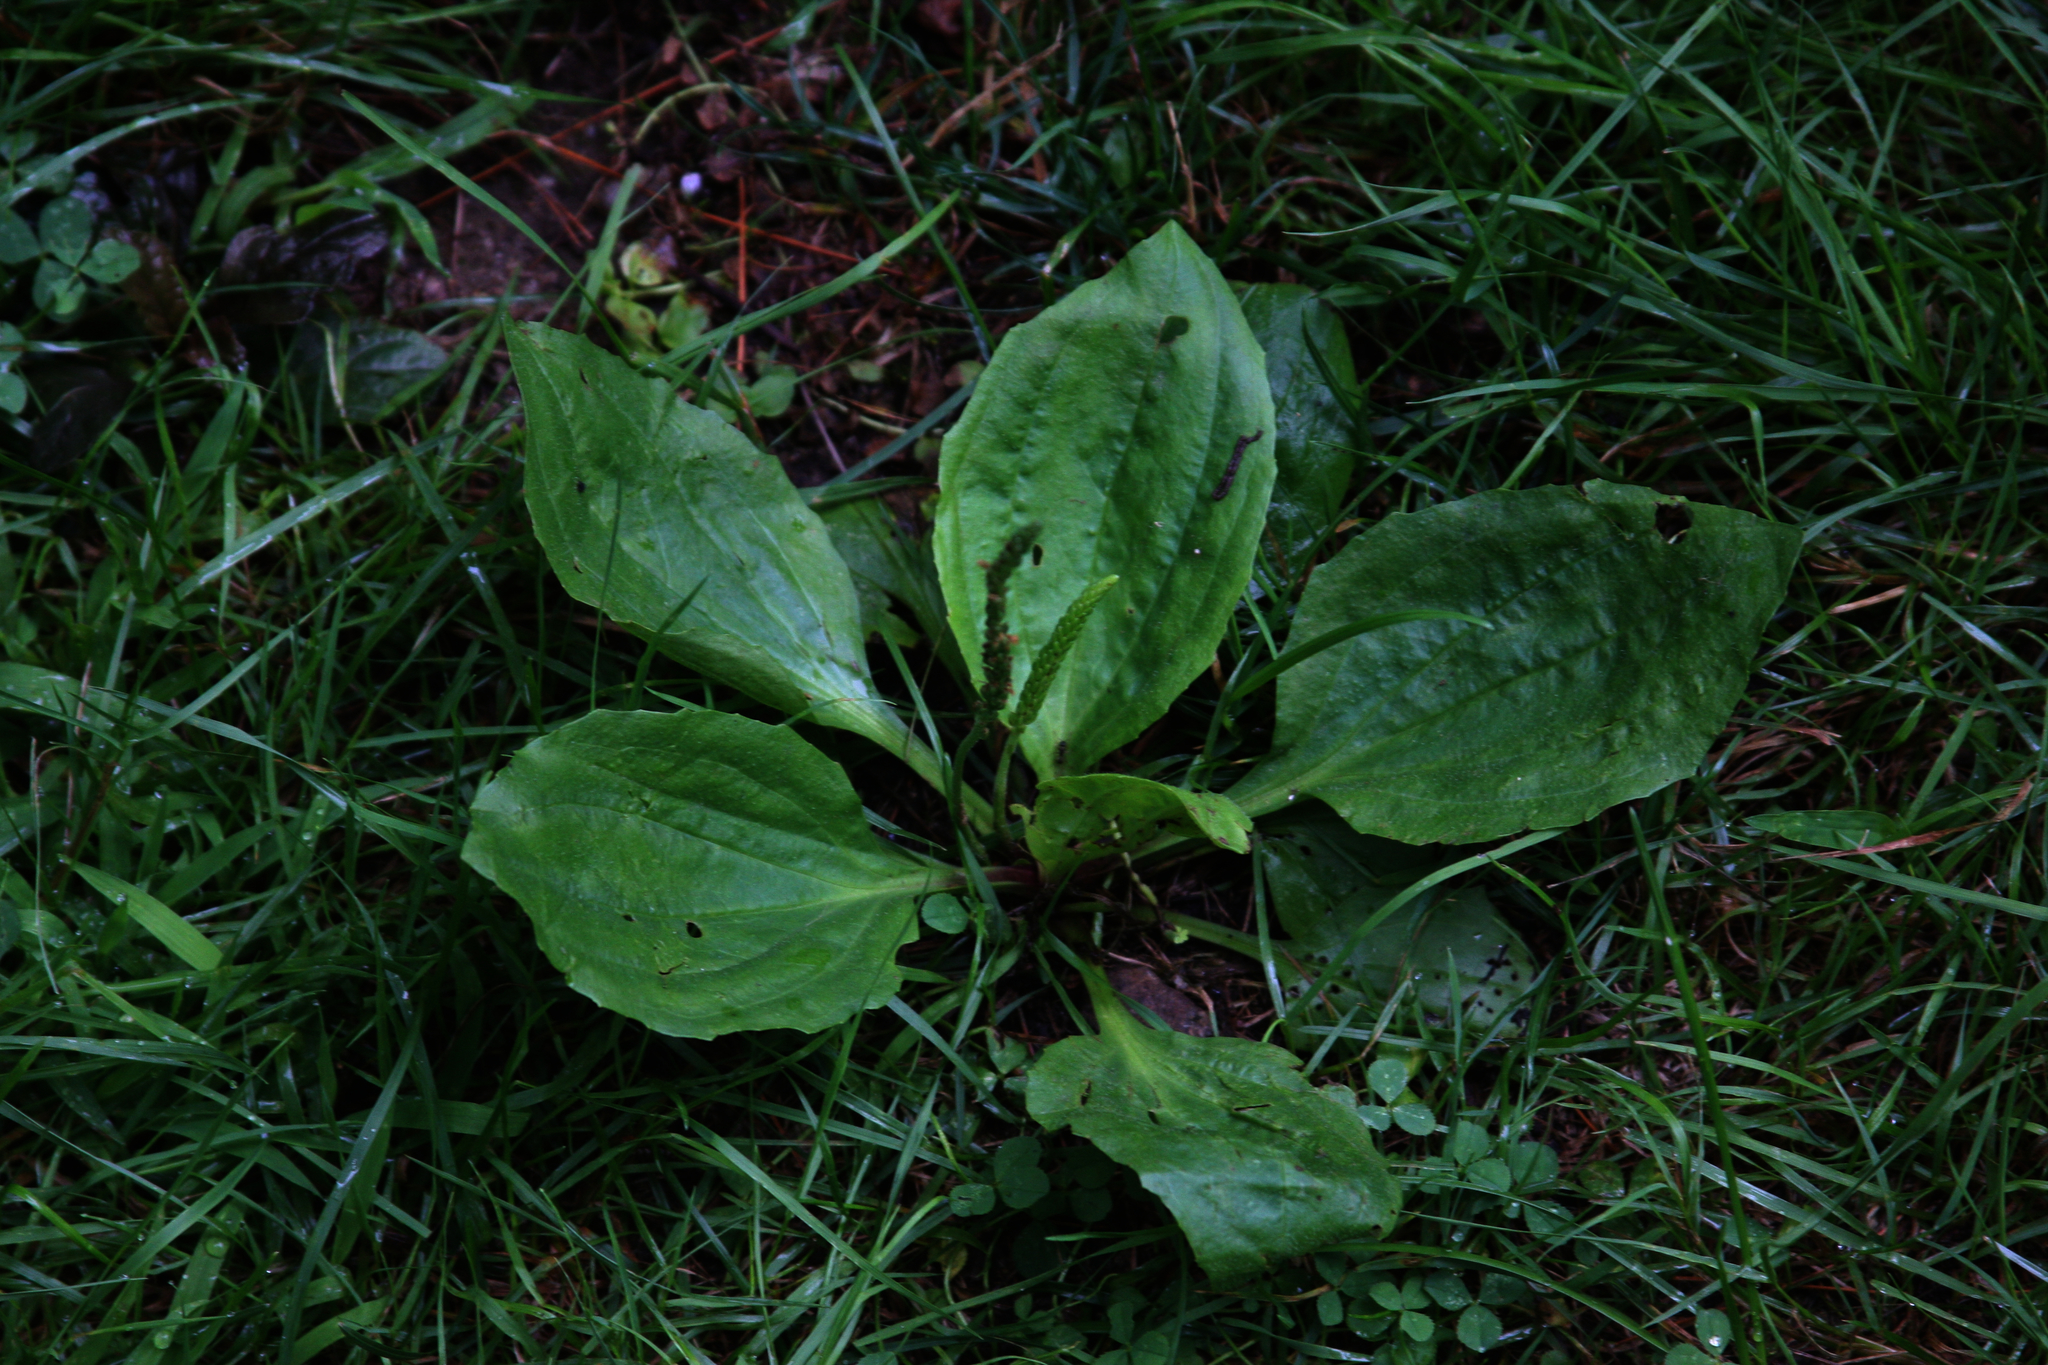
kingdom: Plantae
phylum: Tracheophyta
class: Magnoliopsida
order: Lamiales
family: Plantaginaceae
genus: Plantago
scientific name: Plantago rugelii
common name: American plantain
